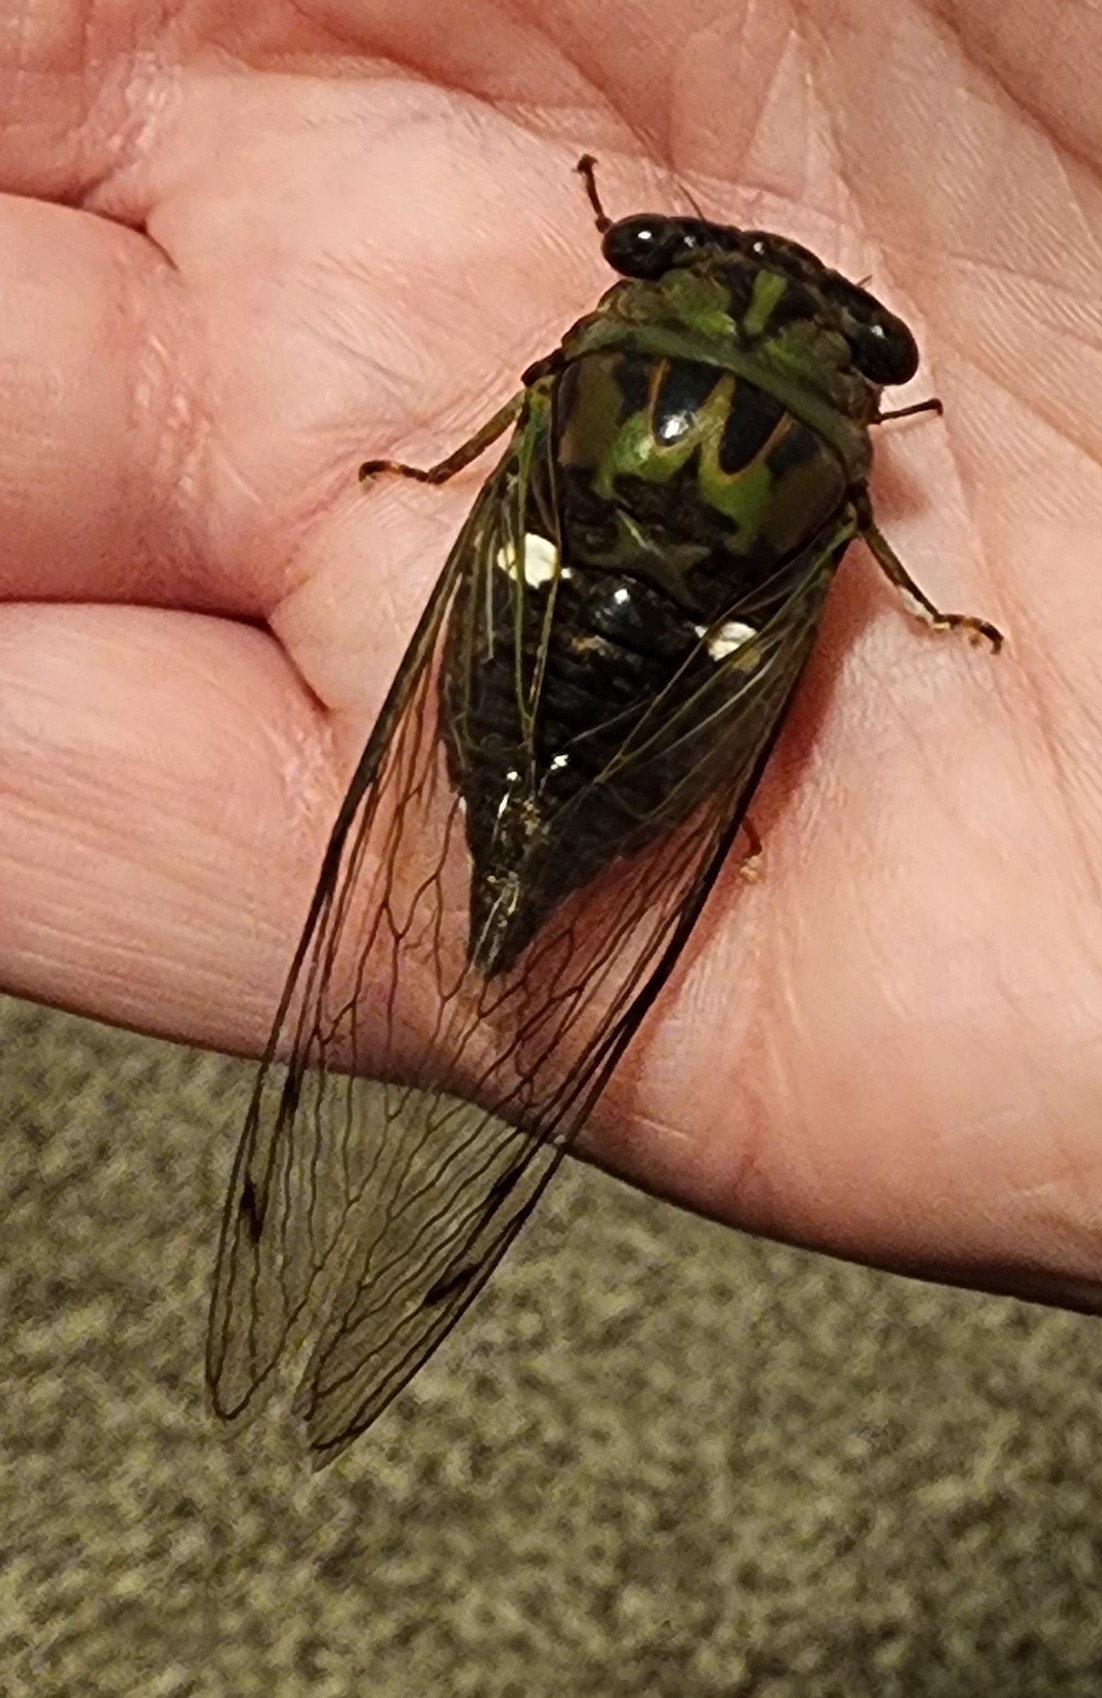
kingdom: Animalia
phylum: Arthropoda
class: Insecta
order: Hemiptera
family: Cicadidae
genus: Neotibicen
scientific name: Neotibicen pruinosus
